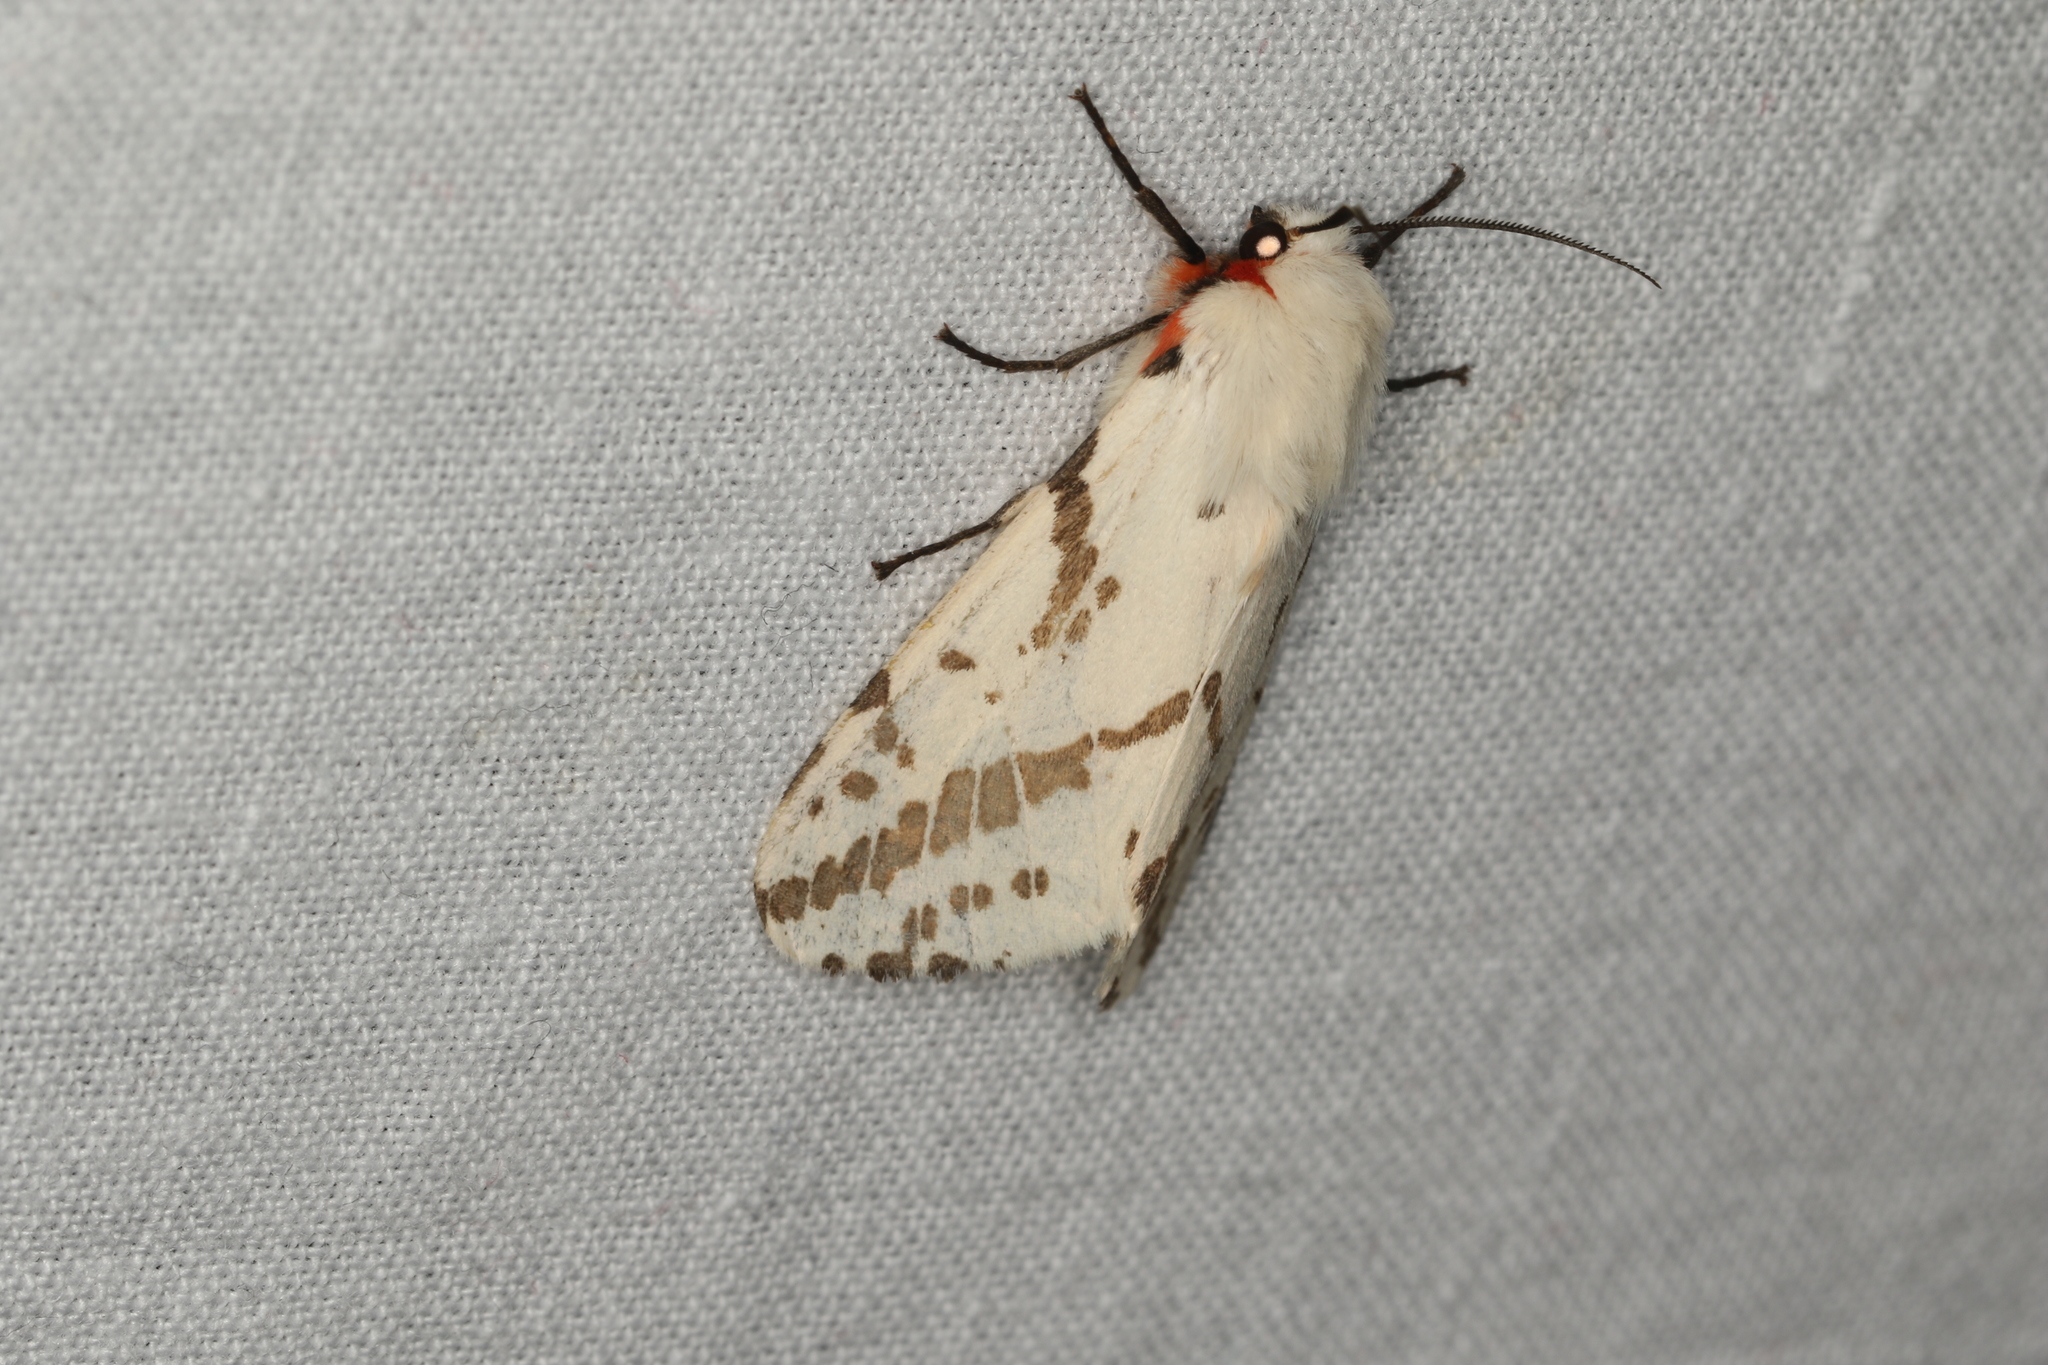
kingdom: Animalia
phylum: Arthropoda
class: Insecta
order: Lepidoptera
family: Erebidae
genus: Ardices
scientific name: Ardices canescens
